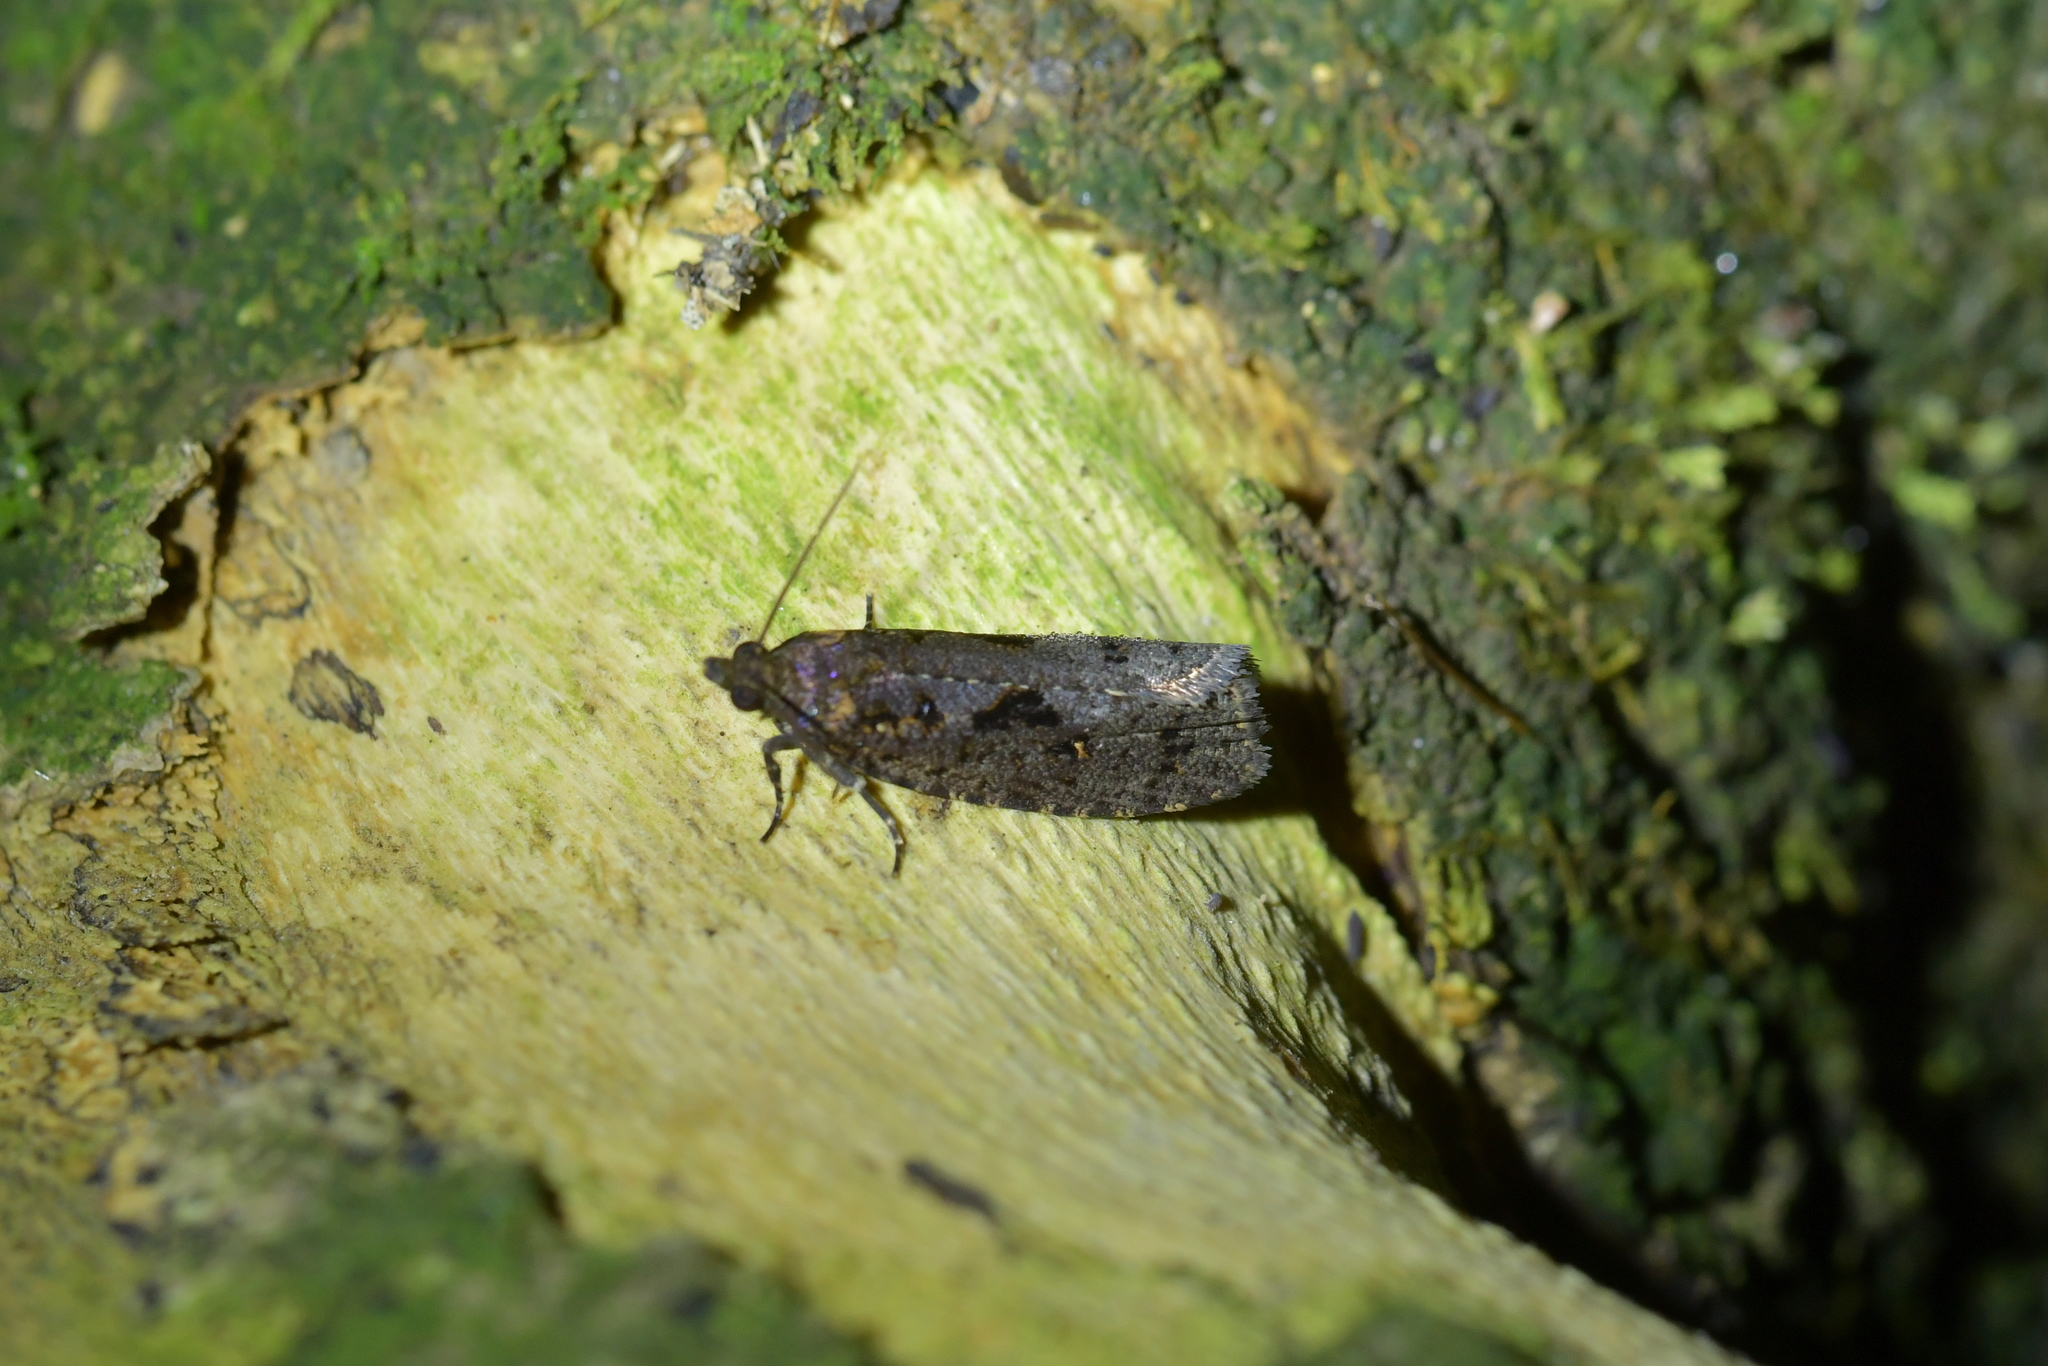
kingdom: Animalia
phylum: Arthropoda
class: Insecta
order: Lepidoptera
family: Tortricidae
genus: Cryptaspasma
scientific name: Cryptaspasma querula
